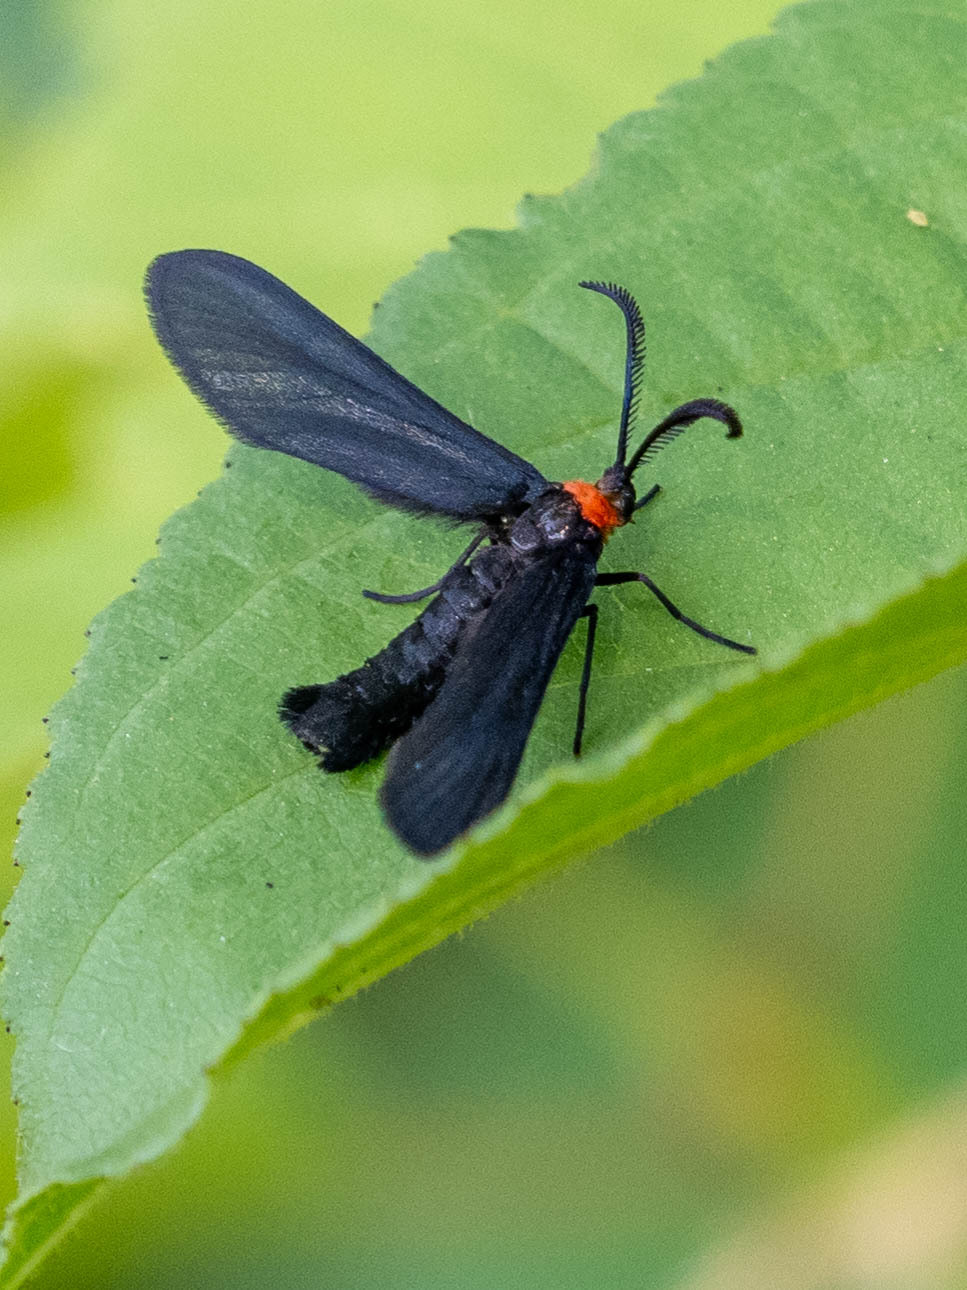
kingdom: Animalia
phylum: Arthropoda
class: Insecta
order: Lepidoptera
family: Zygaenidae
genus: Harrisina
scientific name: Harrisina americana
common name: Grapeleaf skeletonizer moth
